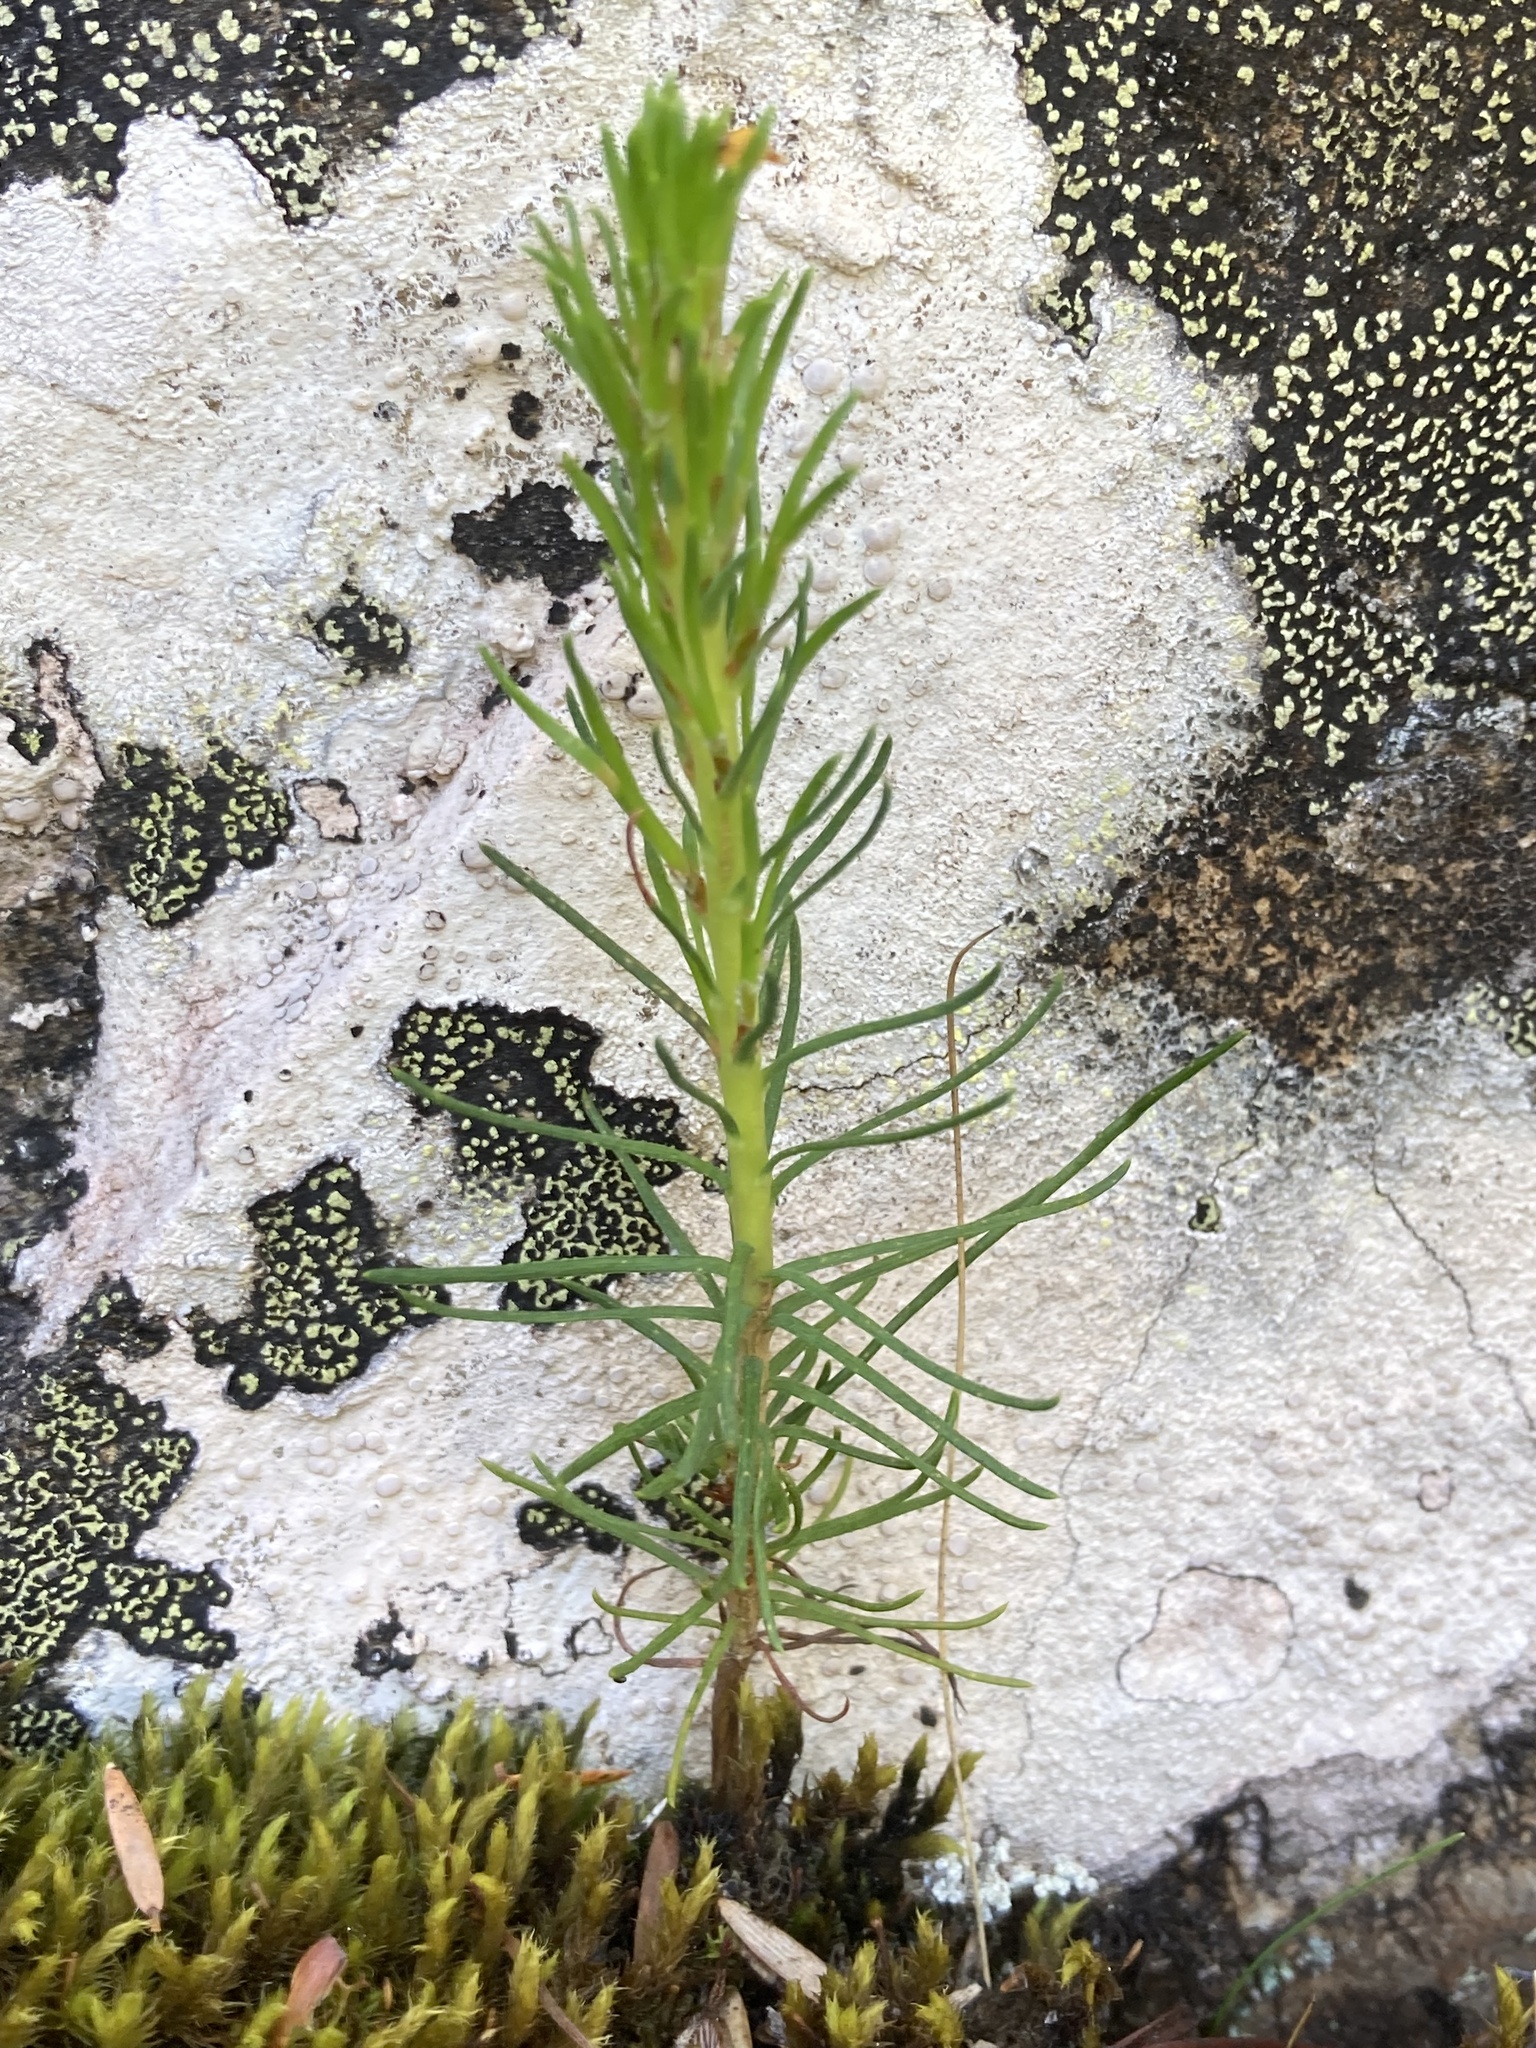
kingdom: Plantae
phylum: Tracheophyta
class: Pinopsida
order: Pinales
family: Pinaceae
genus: Pinus
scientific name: Pinus contorta
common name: Lodgepole pine
